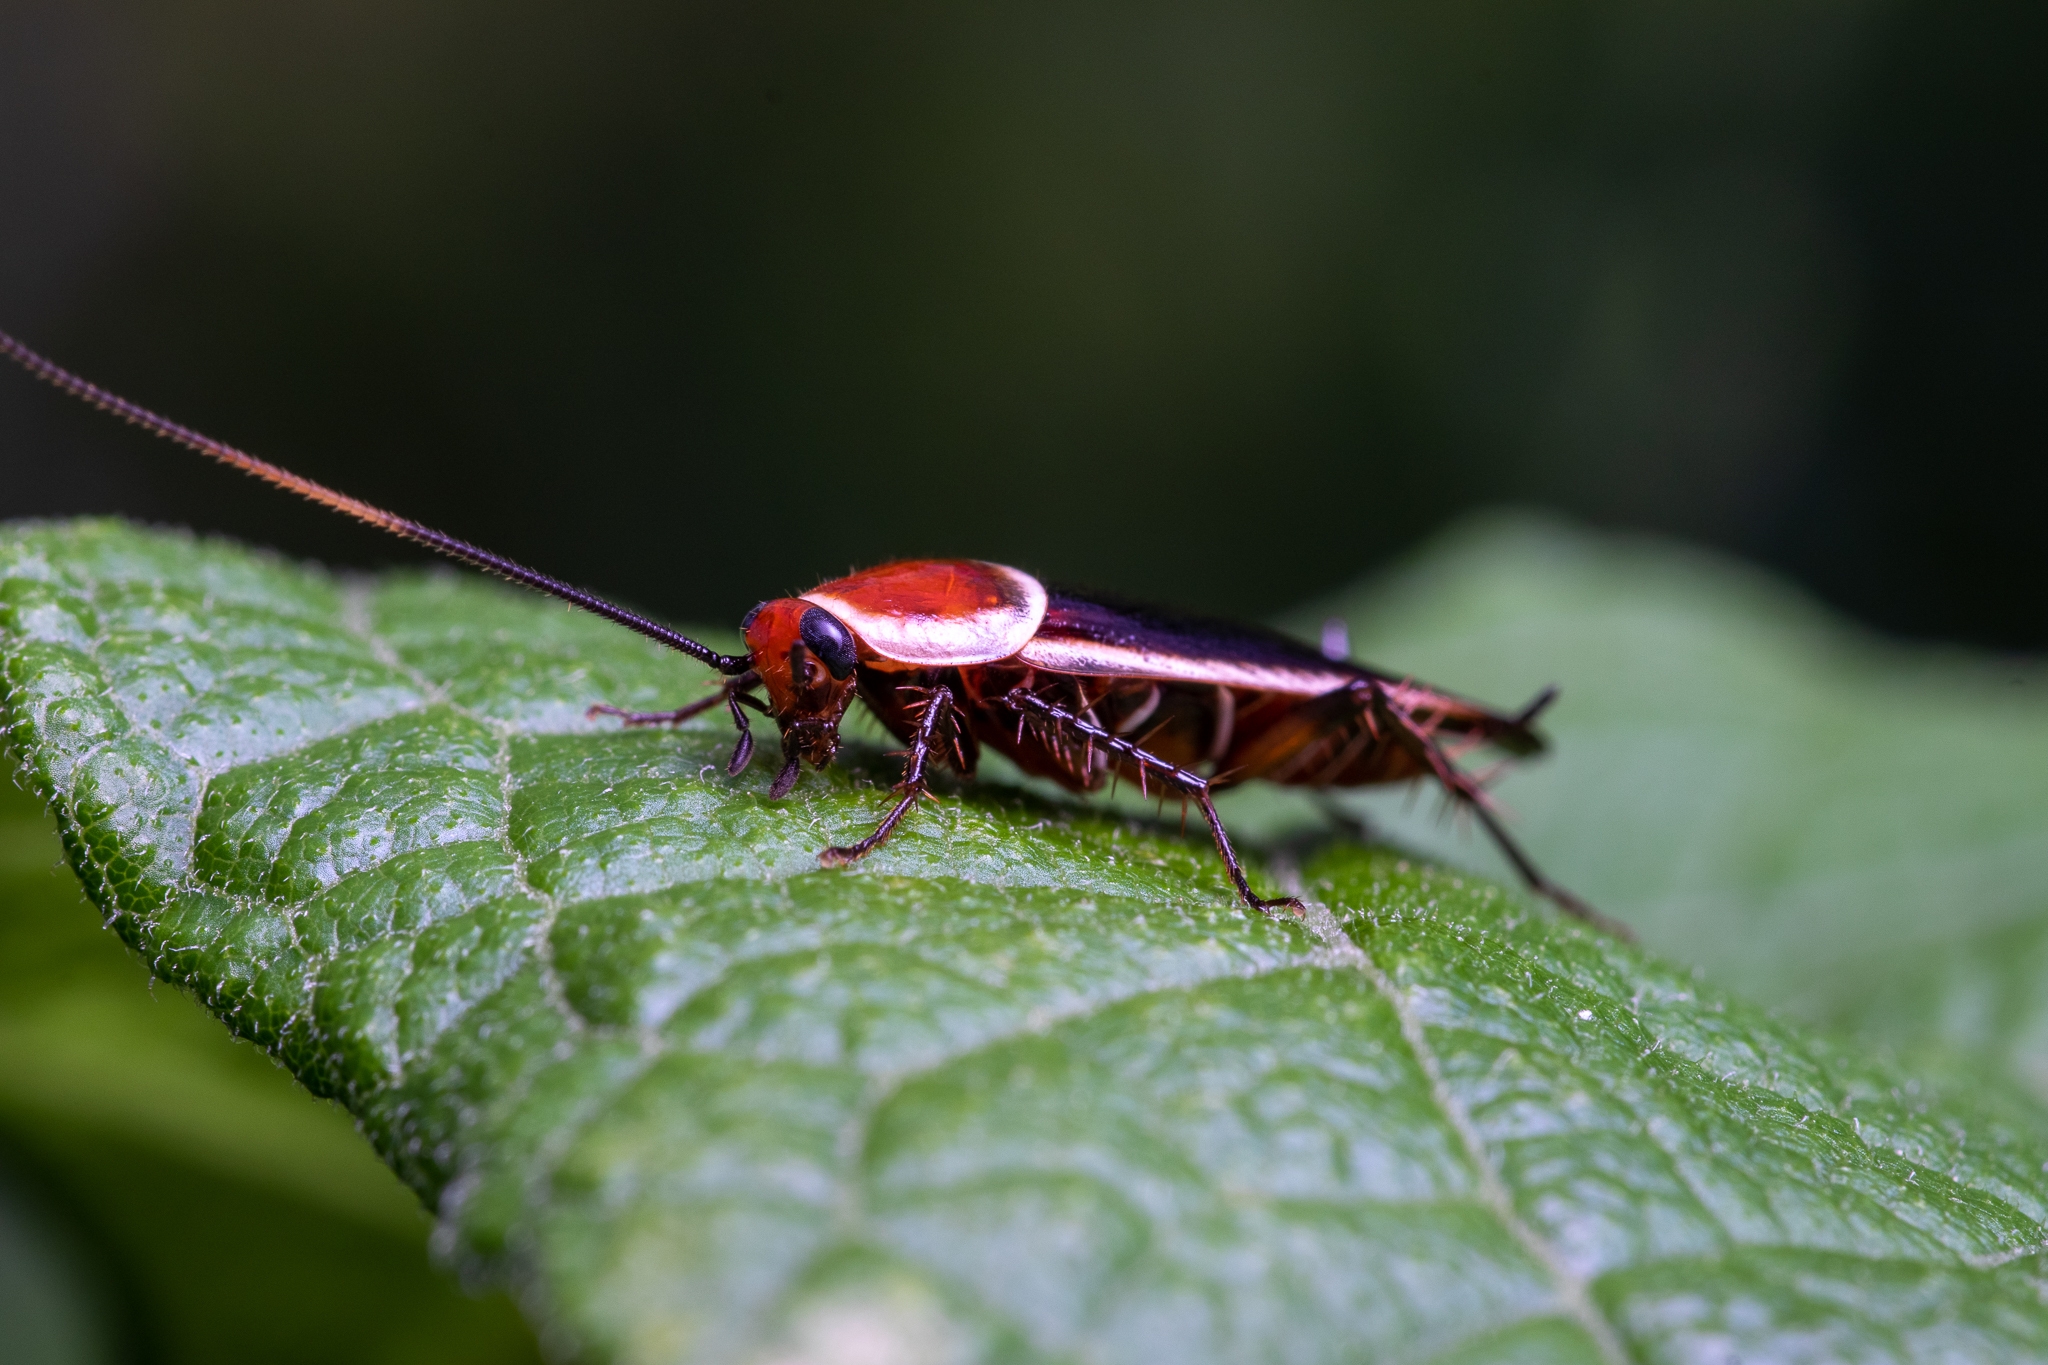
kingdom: Animalia
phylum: Arthropoda
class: Insecta
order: Blattodea
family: Ectobiidae
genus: Pseudomops
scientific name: Pseudomops septentrionalis
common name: Pale-bordered field cockroach
